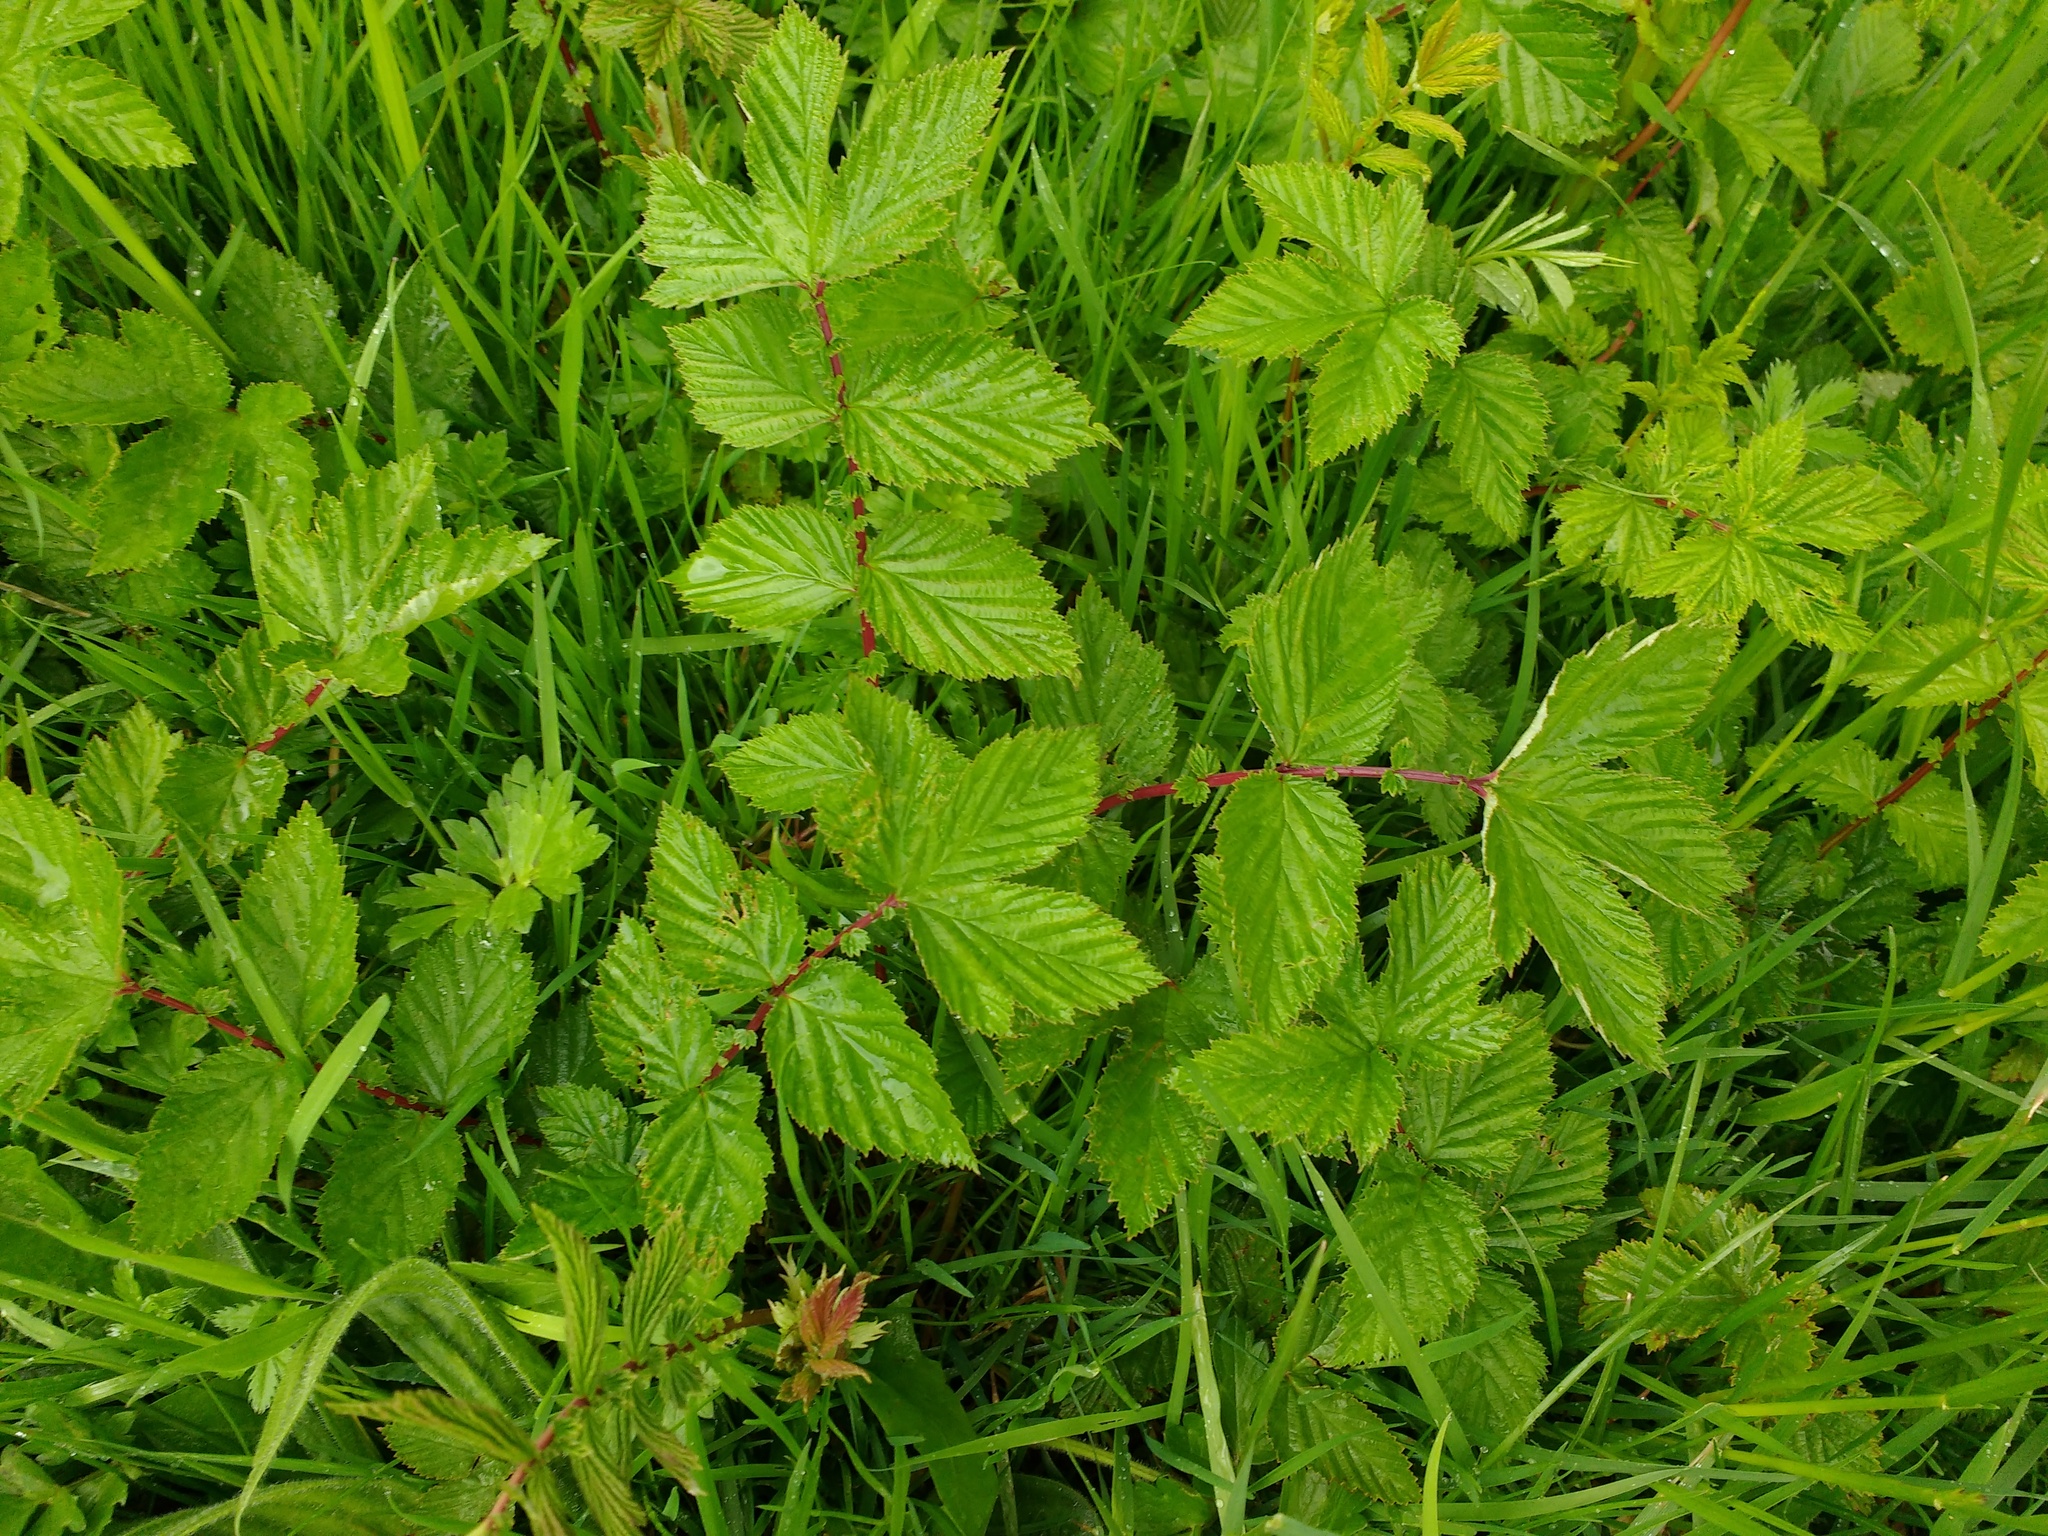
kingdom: Plantae
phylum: Tracheophyta
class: Magnoliopsida
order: Rosales
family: Rosaceae
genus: Filipendula
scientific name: Filipendula ulmaria
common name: Meadowsweet
